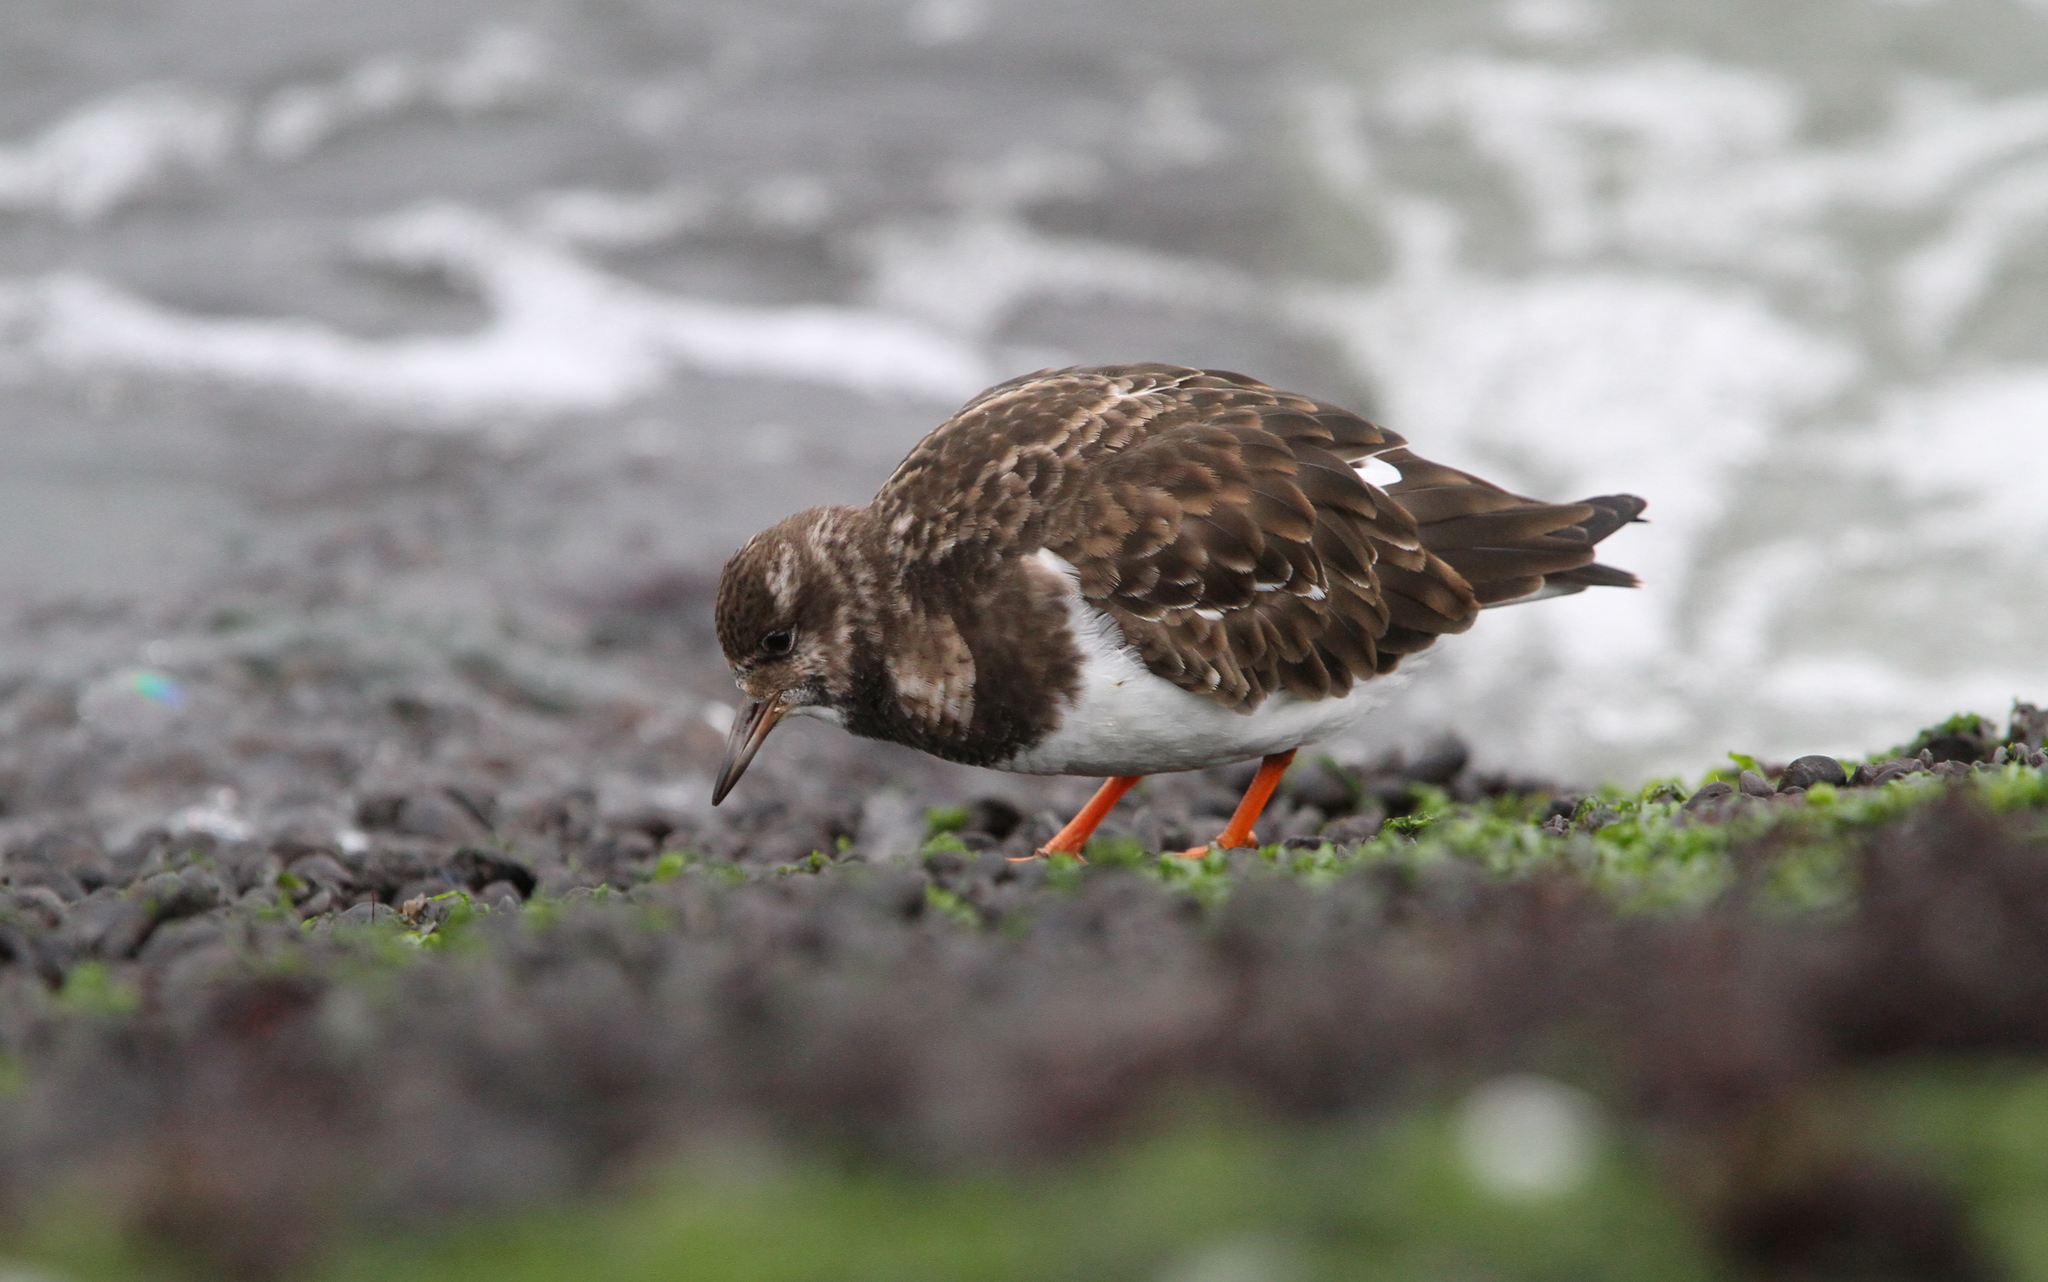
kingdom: Animalia
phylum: Chordata
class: Aves
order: Charadriiformes
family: Scolopacidae
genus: Arenaria
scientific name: Arenaria interpres
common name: Ruddy turnstone
